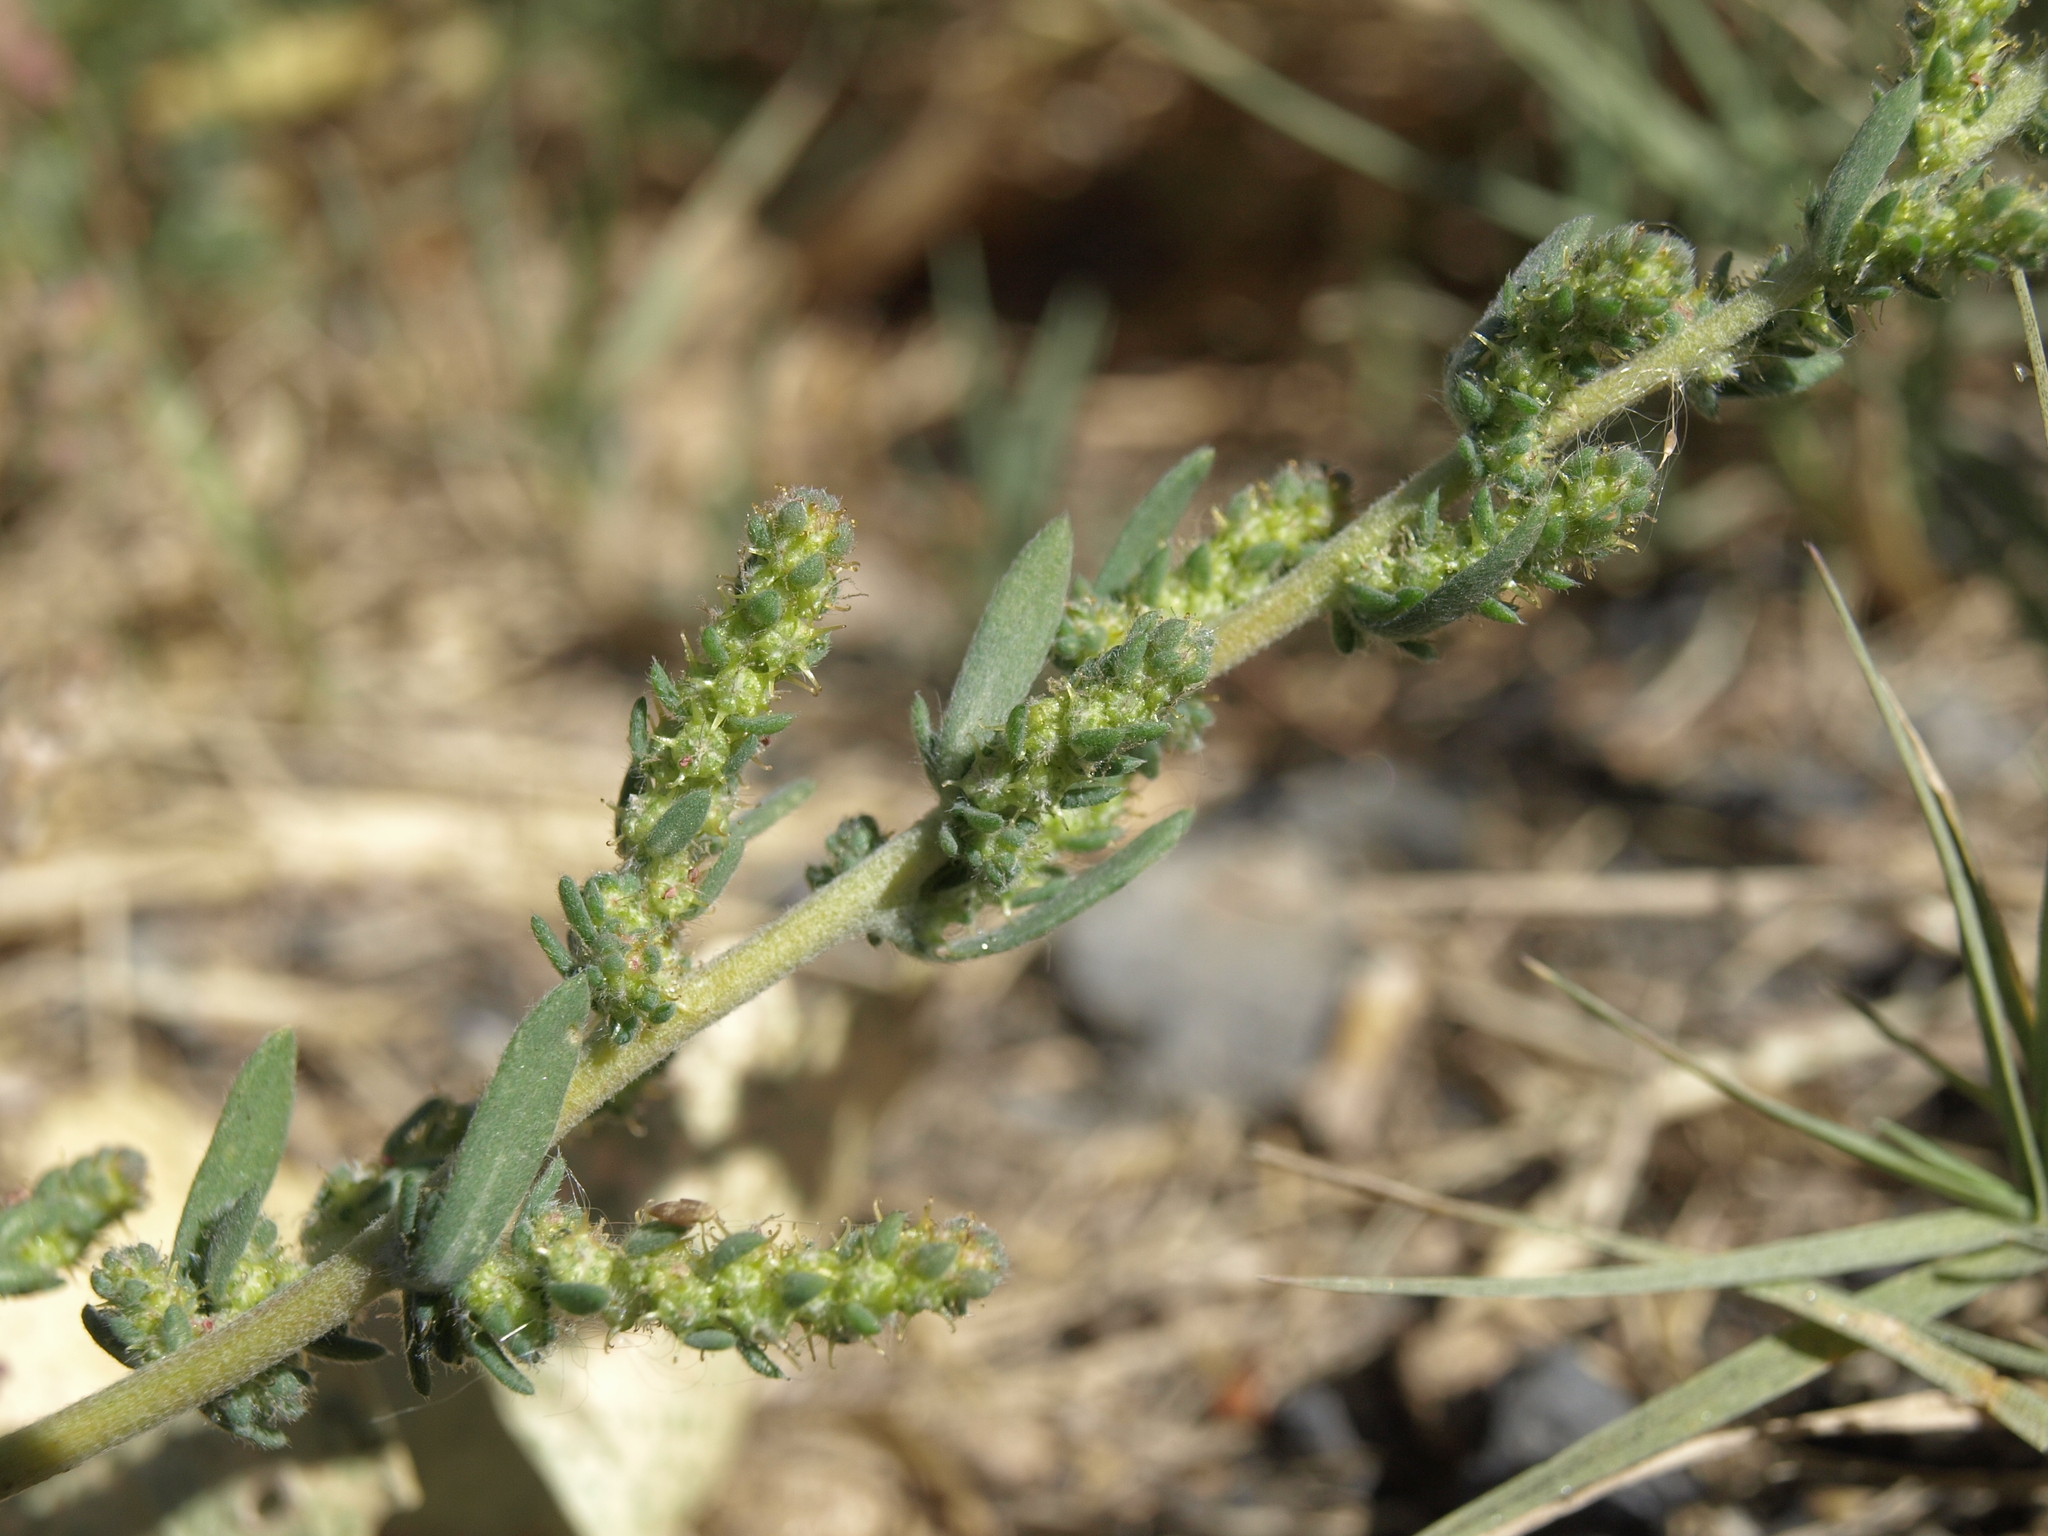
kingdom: Plantae
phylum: Tracheophyta
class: Magnoliopsida
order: Caryophyllales
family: Amaranthaceae
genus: Bassia
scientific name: Bassia hyssopifolia
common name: Fivehorn smotherweed
